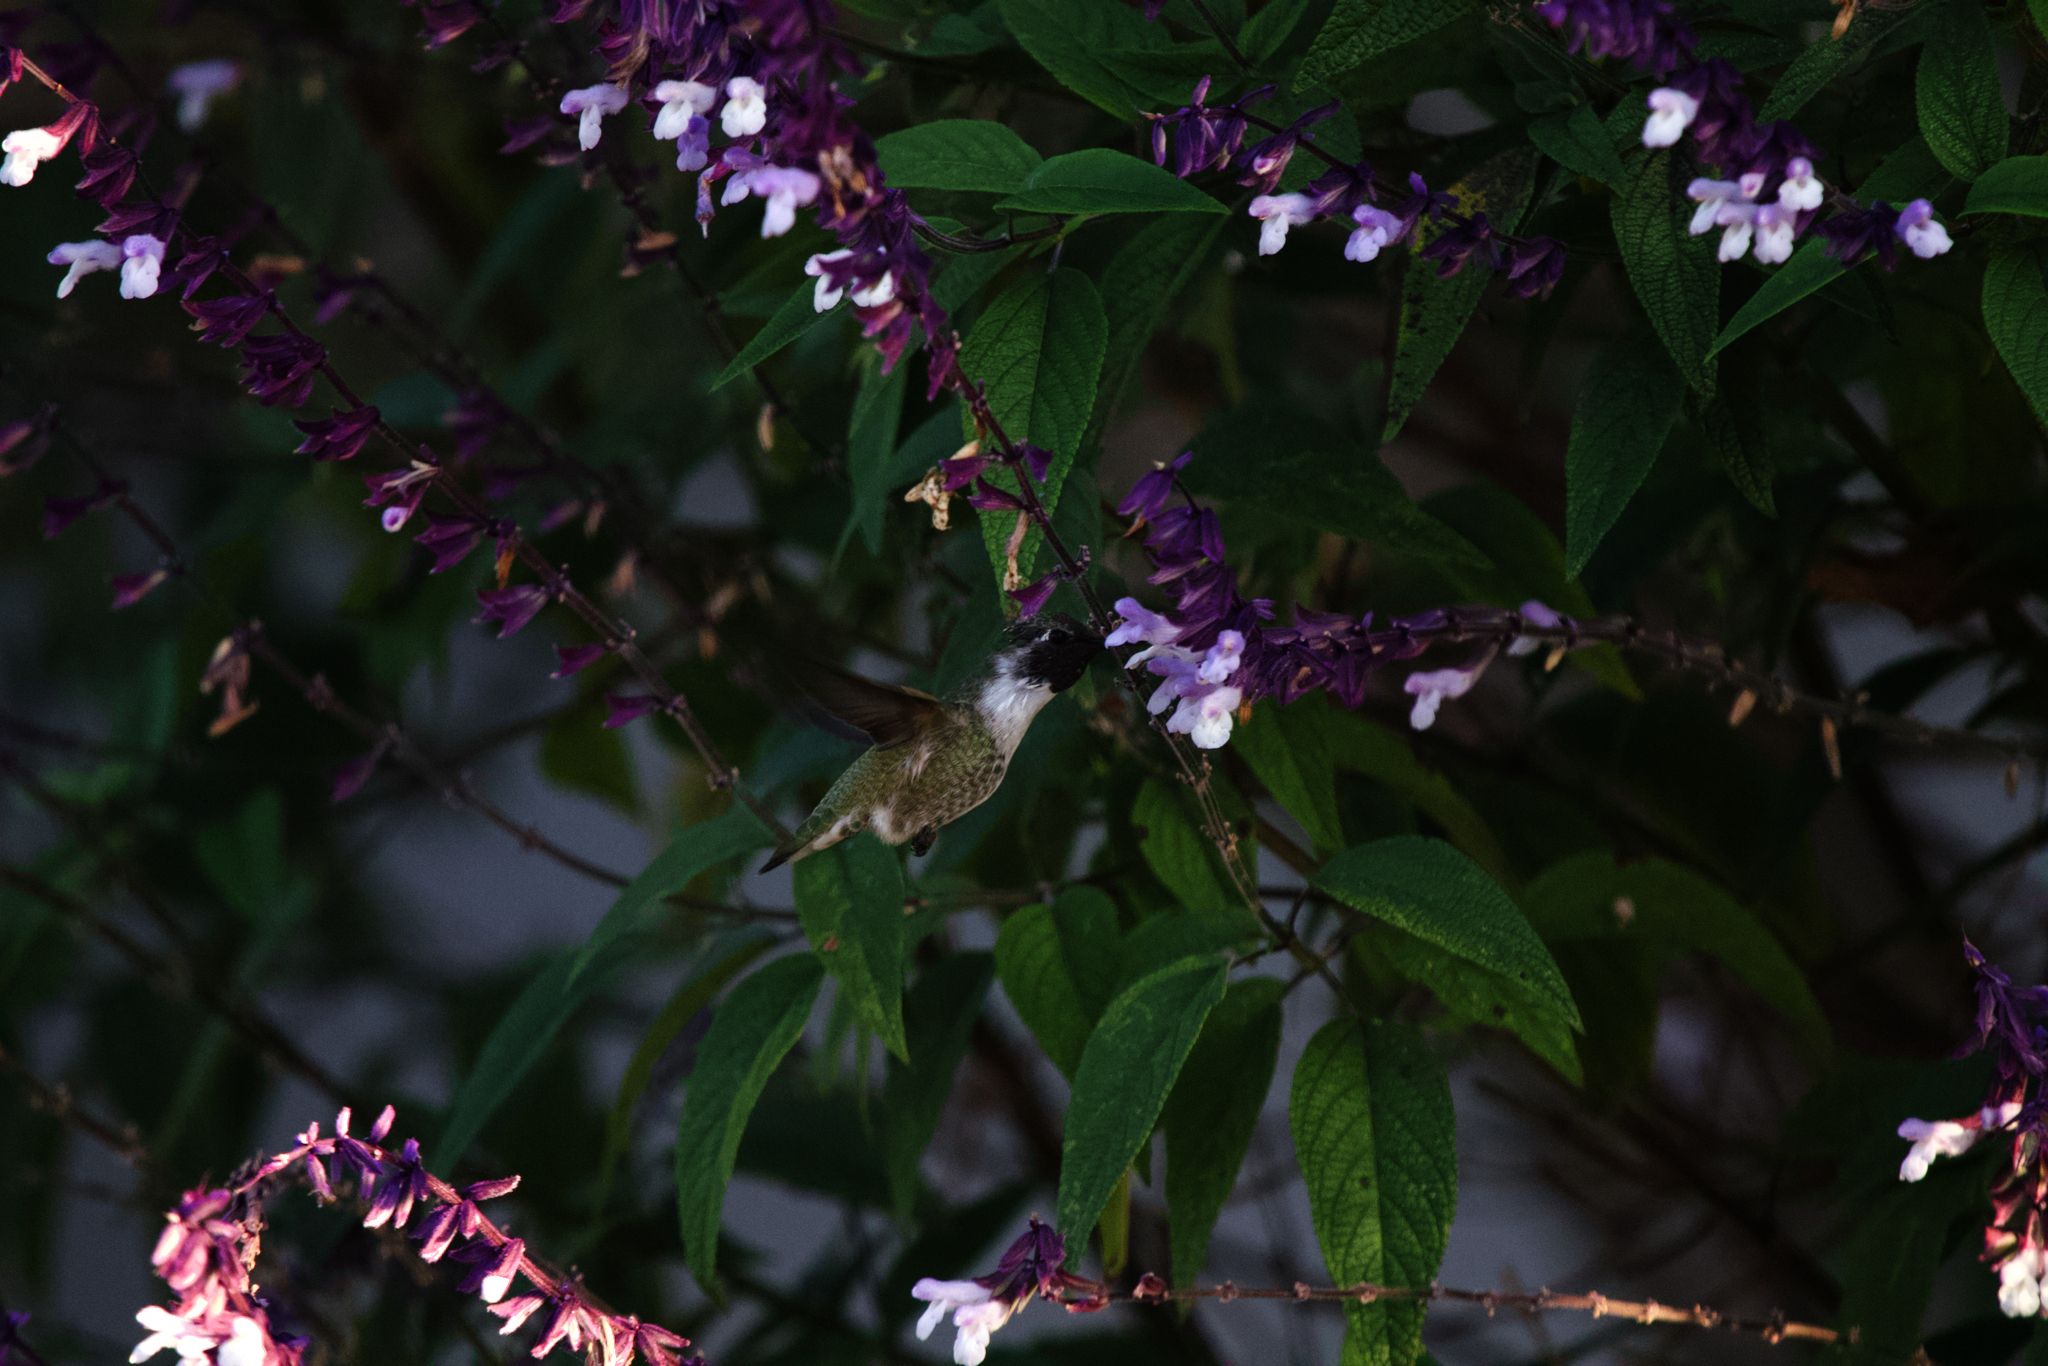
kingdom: Animalia
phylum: Chordata
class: Aves
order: Apodiformes
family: Trochilidae
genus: Calypte
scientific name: Calypte costae
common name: Costa's hummingbird
